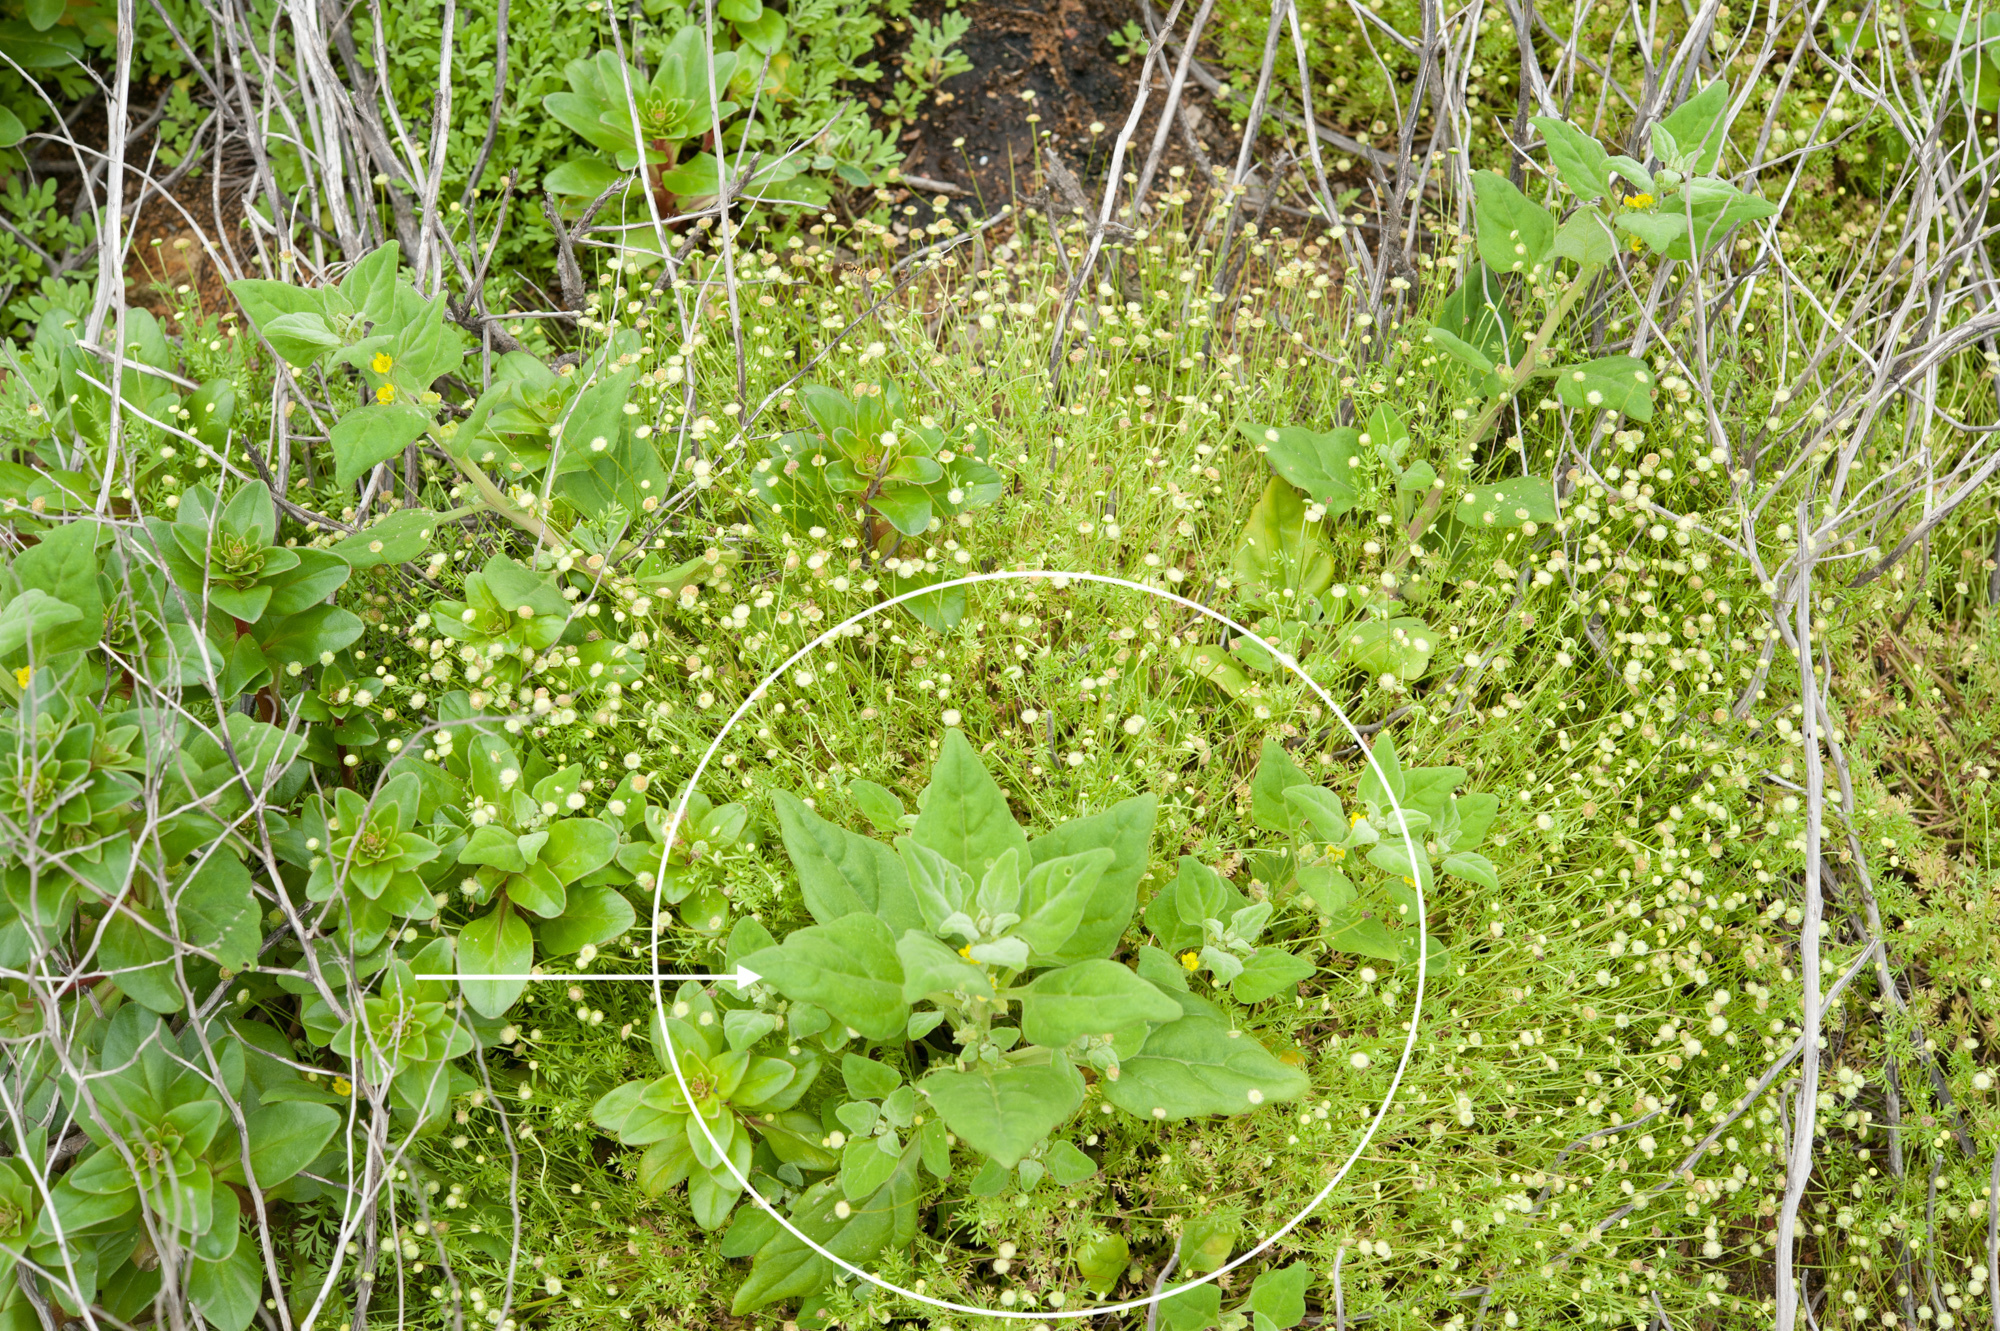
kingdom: Plantae
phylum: Tracheophyta
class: Magnoliopsida
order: Caryophyllales
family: Aizoaceae
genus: Tetragonia
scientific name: Tetragonia tetragonoides
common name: New zealand-spinach
